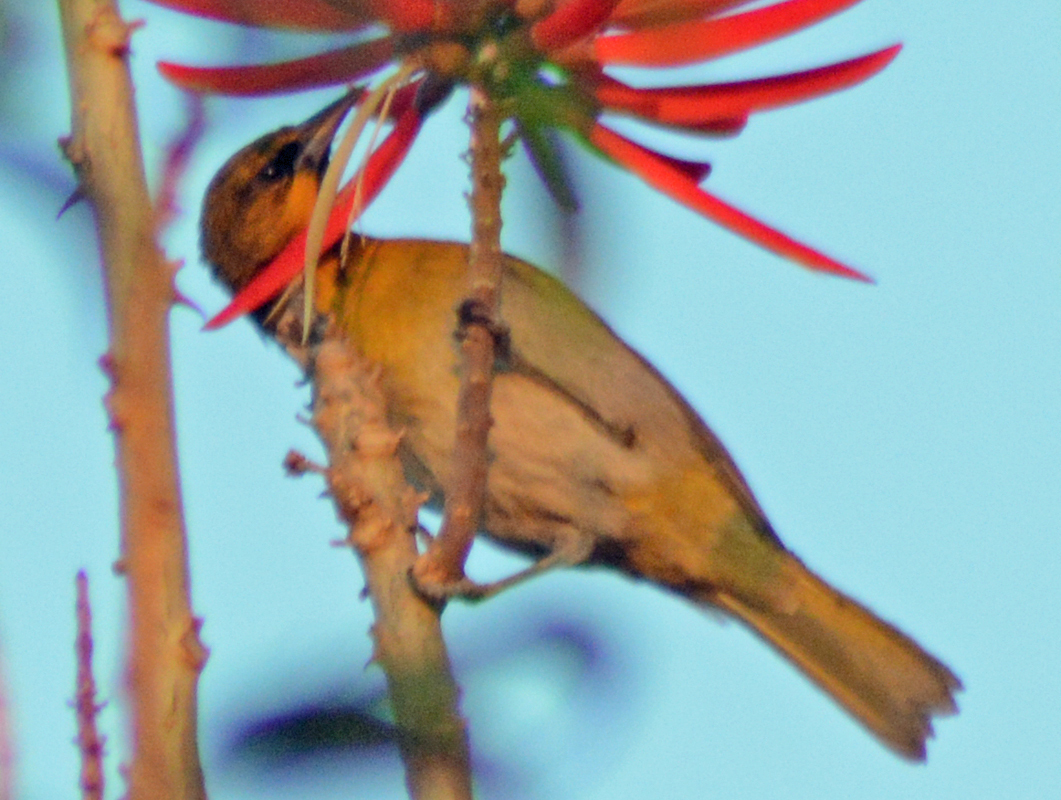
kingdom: Animalia
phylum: Chordata
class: Aves
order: Passeriformes
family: Icteridae
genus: Icterus
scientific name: Icterus abeillei
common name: Black-backed oriole
